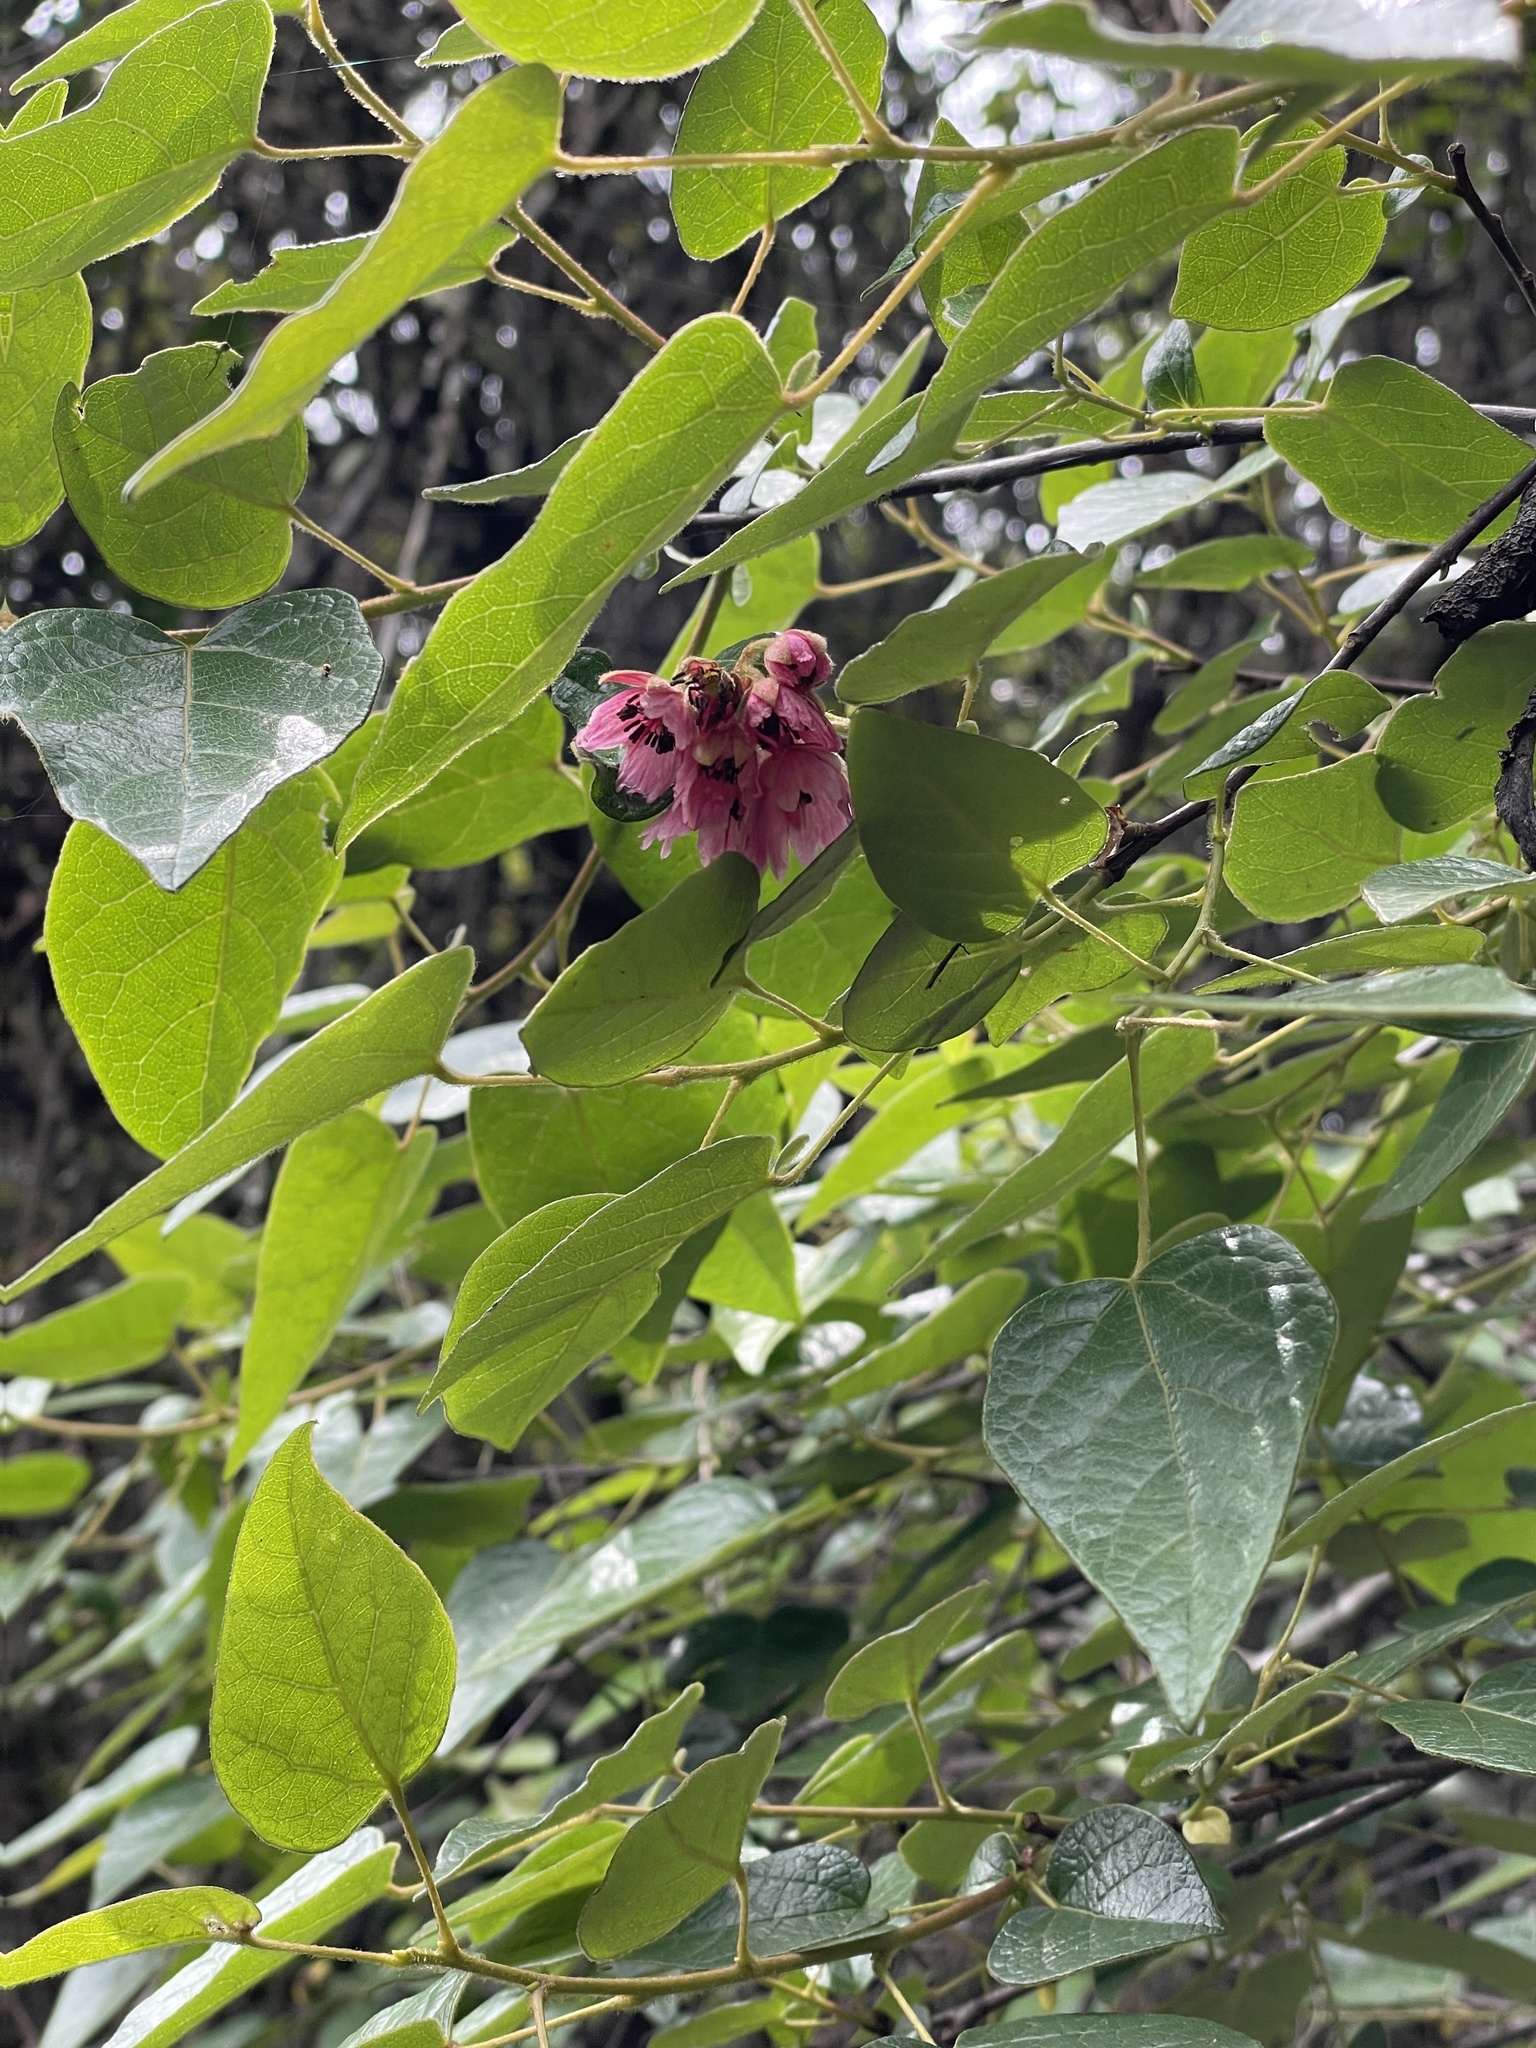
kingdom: Plantae
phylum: Tracheophyta
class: Magnoliopsida
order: Oxalidales
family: Elaeocarpaceae
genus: Vallea
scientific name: Vallea stipularis
